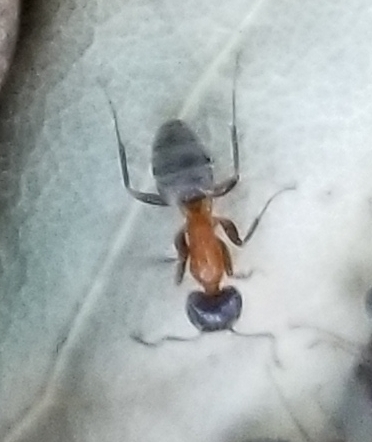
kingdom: Animalia
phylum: Arthropoda
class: Insecta
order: Hymenoptera
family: Formicidae
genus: Liometopum
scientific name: Liometopum occidentale
